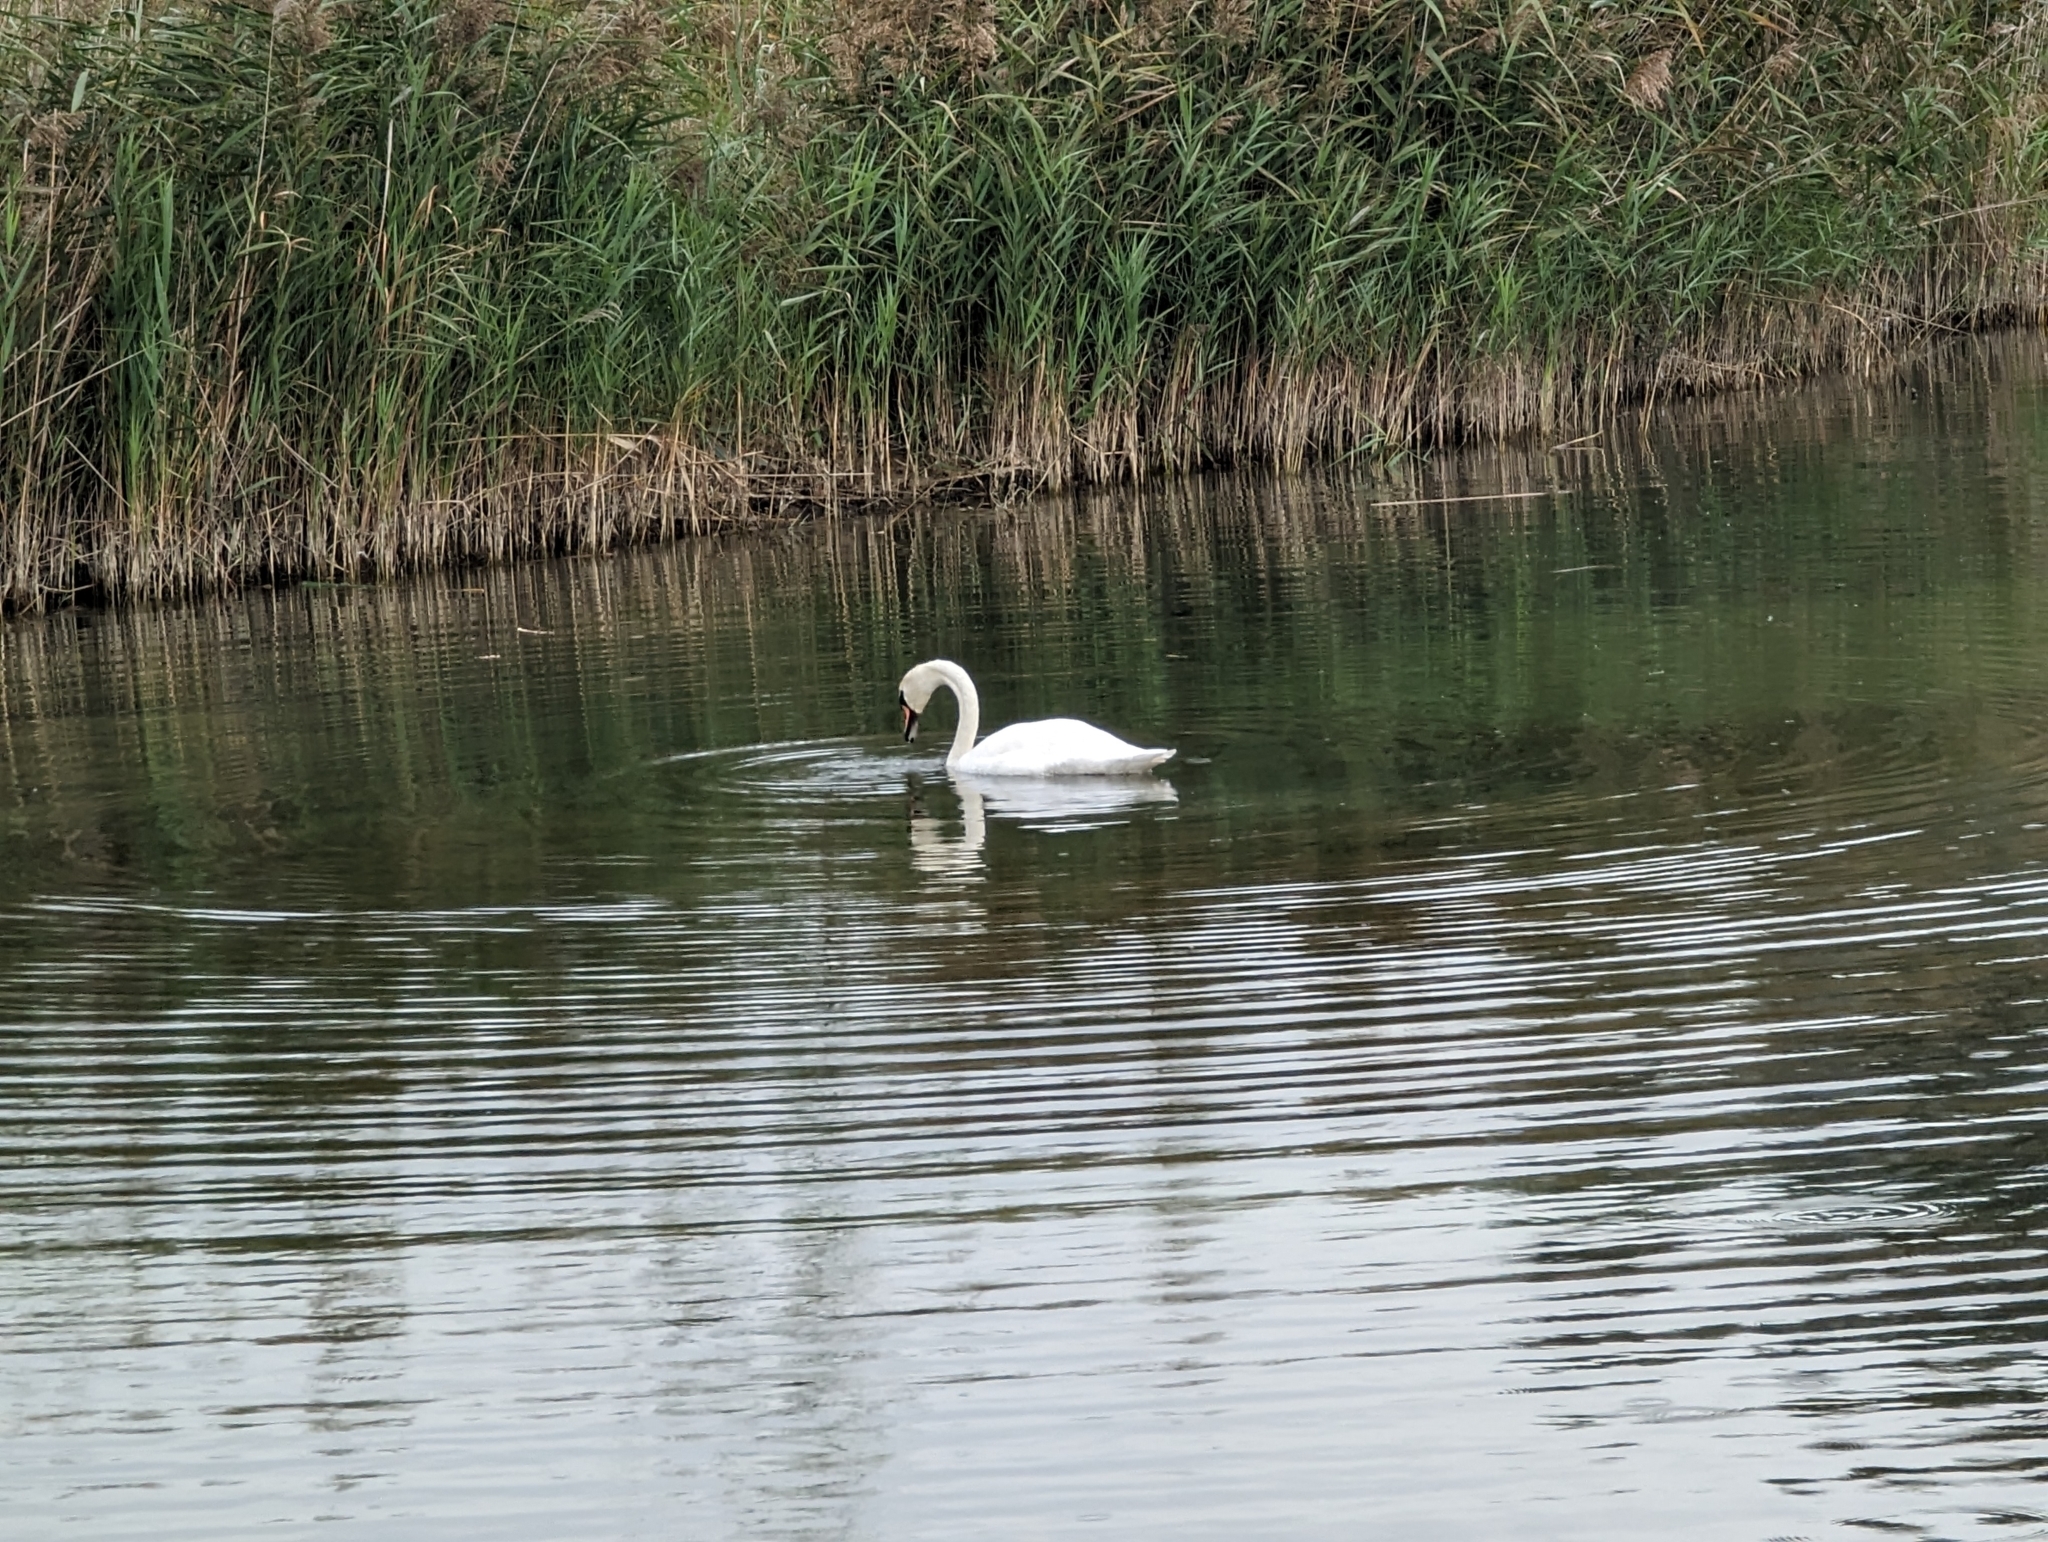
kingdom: Animalia
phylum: Chordata
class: Aves
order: Anseriformes
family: Anatidae
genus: Cygnus
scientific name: Cygnus olor
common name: Mute swan
